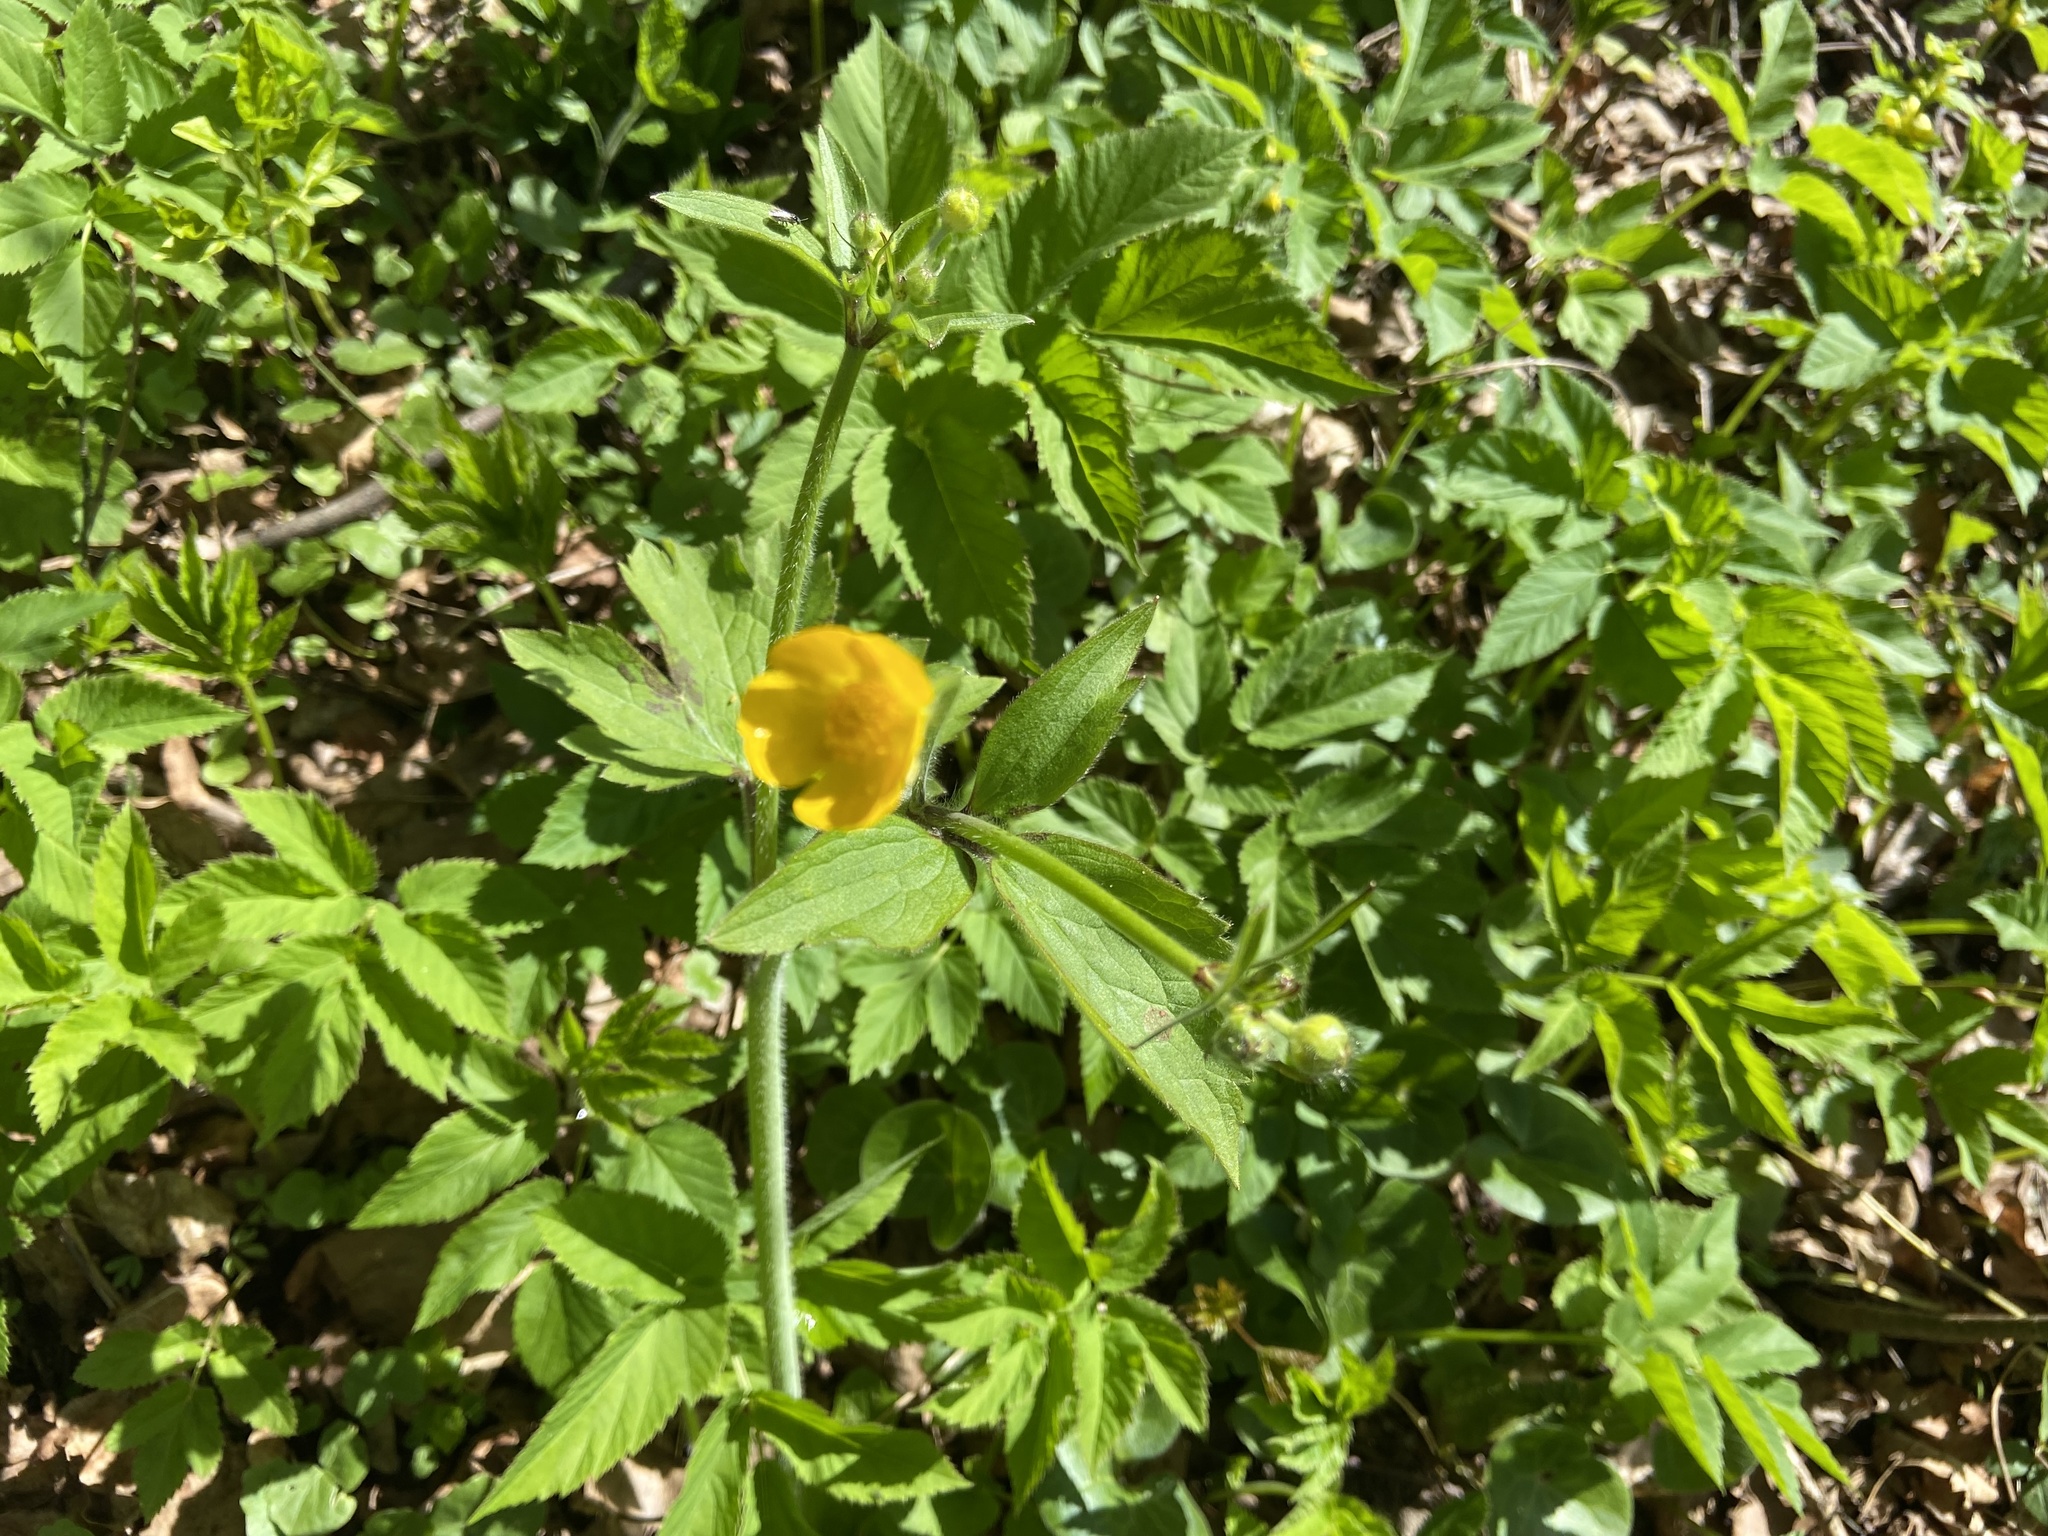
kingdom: Plantae
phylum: Tracheophyta
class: Magnoliopsida
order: Ranunculales
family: Ranunculaceae
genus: Ranunculus
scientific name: Ranunculus lanuginosus
